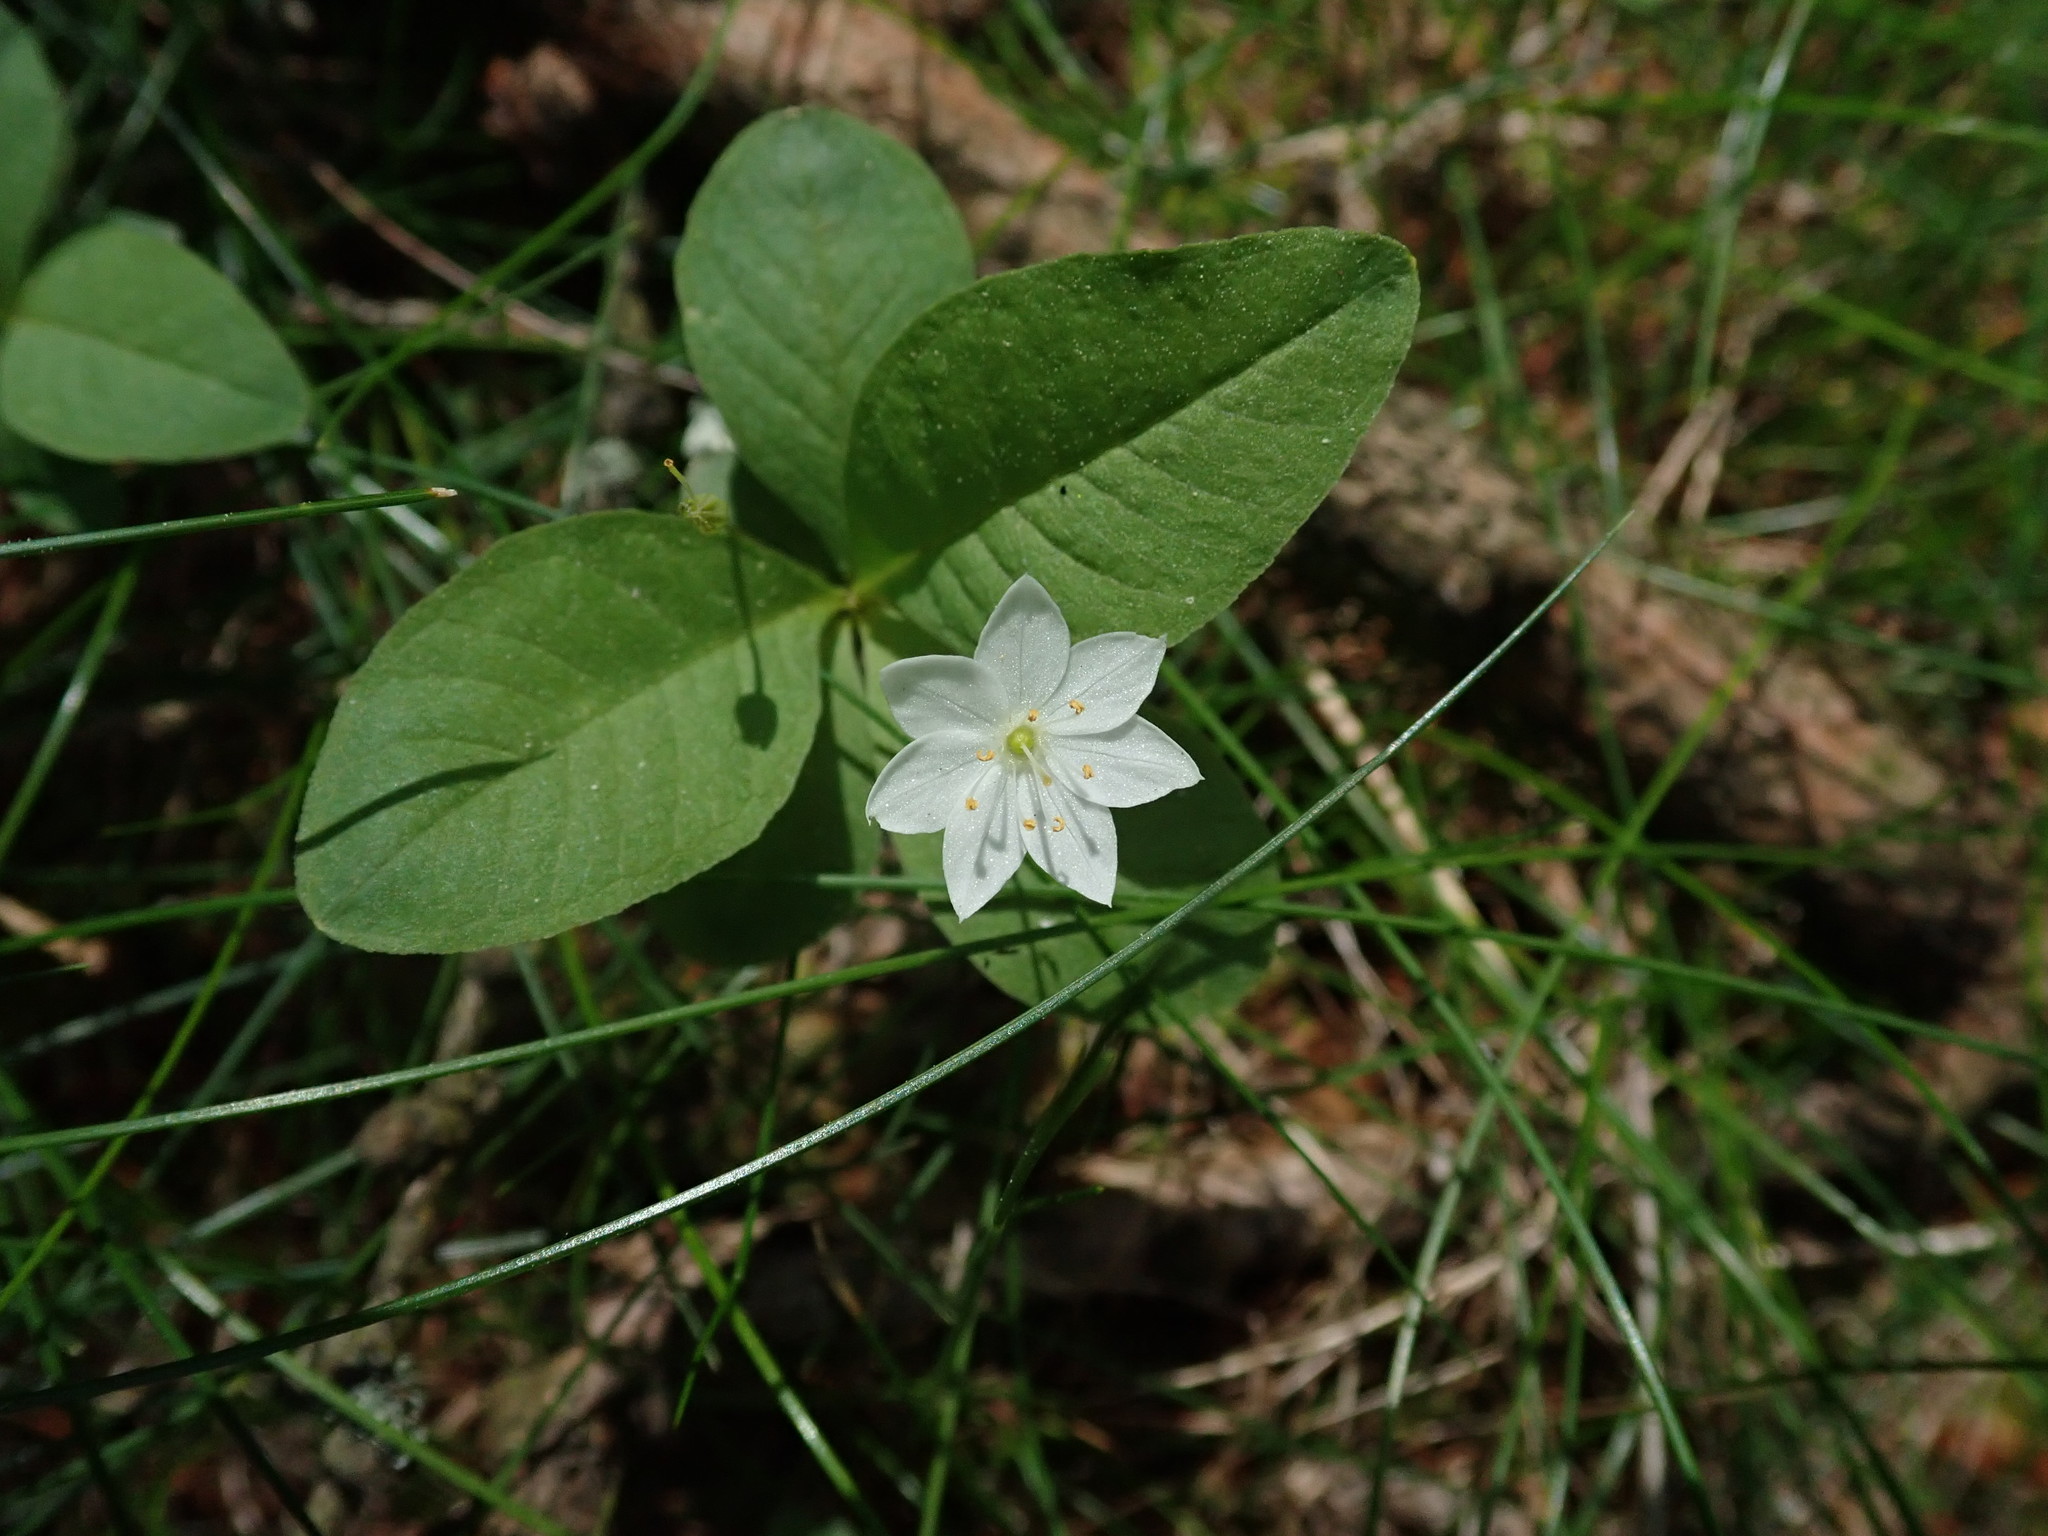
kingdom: Plantae
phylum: Tracheophyta
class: Magnoliopsida
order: Ericales
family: Primulaceae
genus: Lysimachia
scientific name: Lysimachia europaea
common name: Arctic starflower
